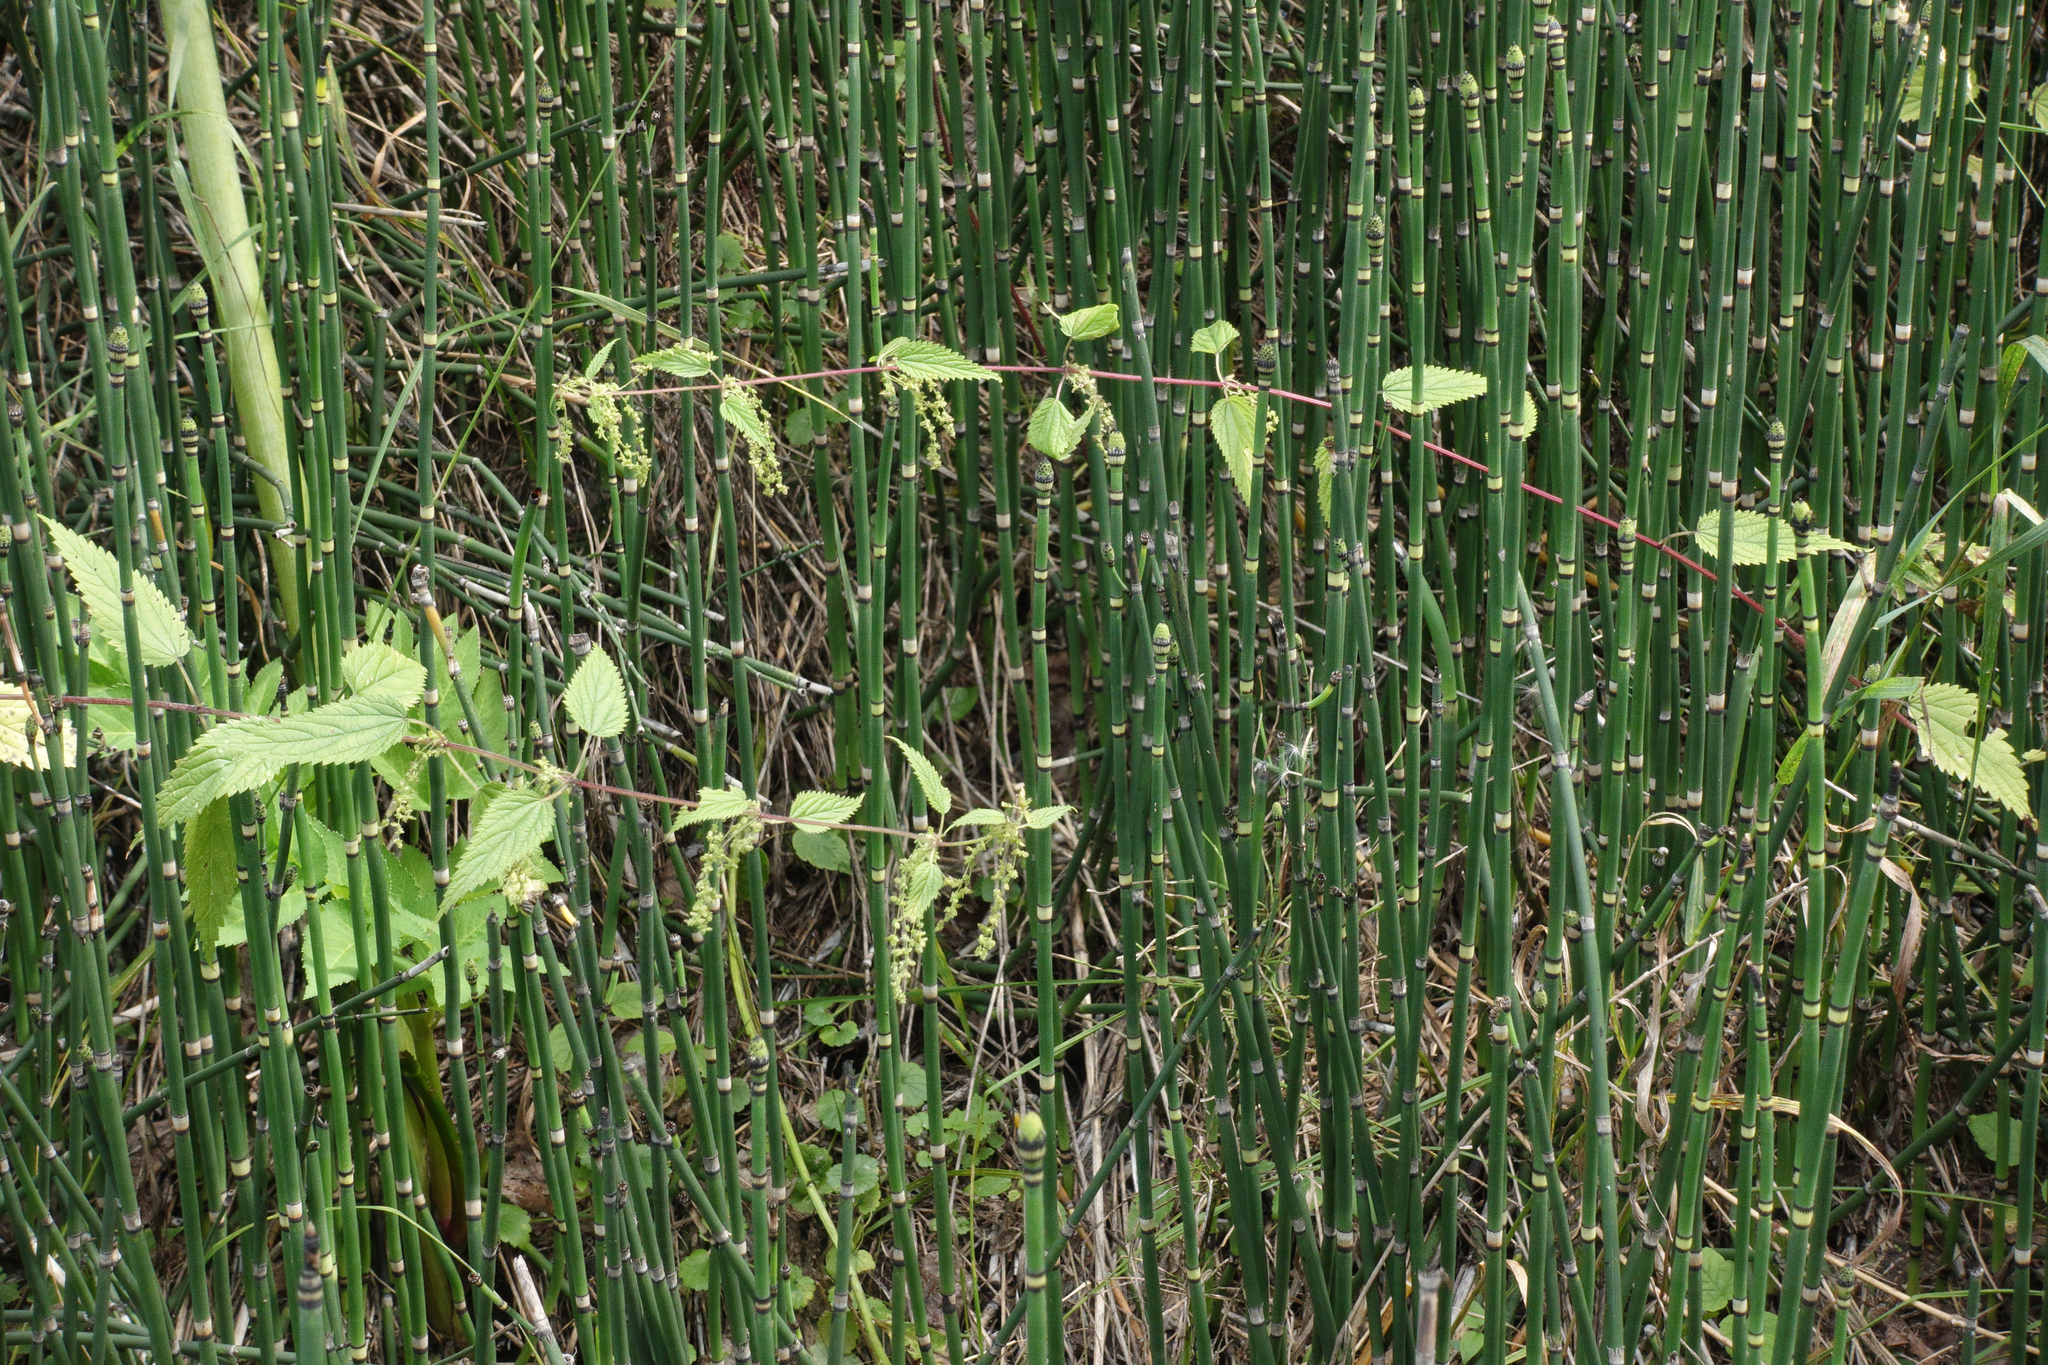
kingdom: Plantae
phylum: Tracheophyta
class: Magnoliopsida
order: Rosales
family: Urticaceae
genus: Urtica
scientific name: Urtica dioica
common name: Common nettle
